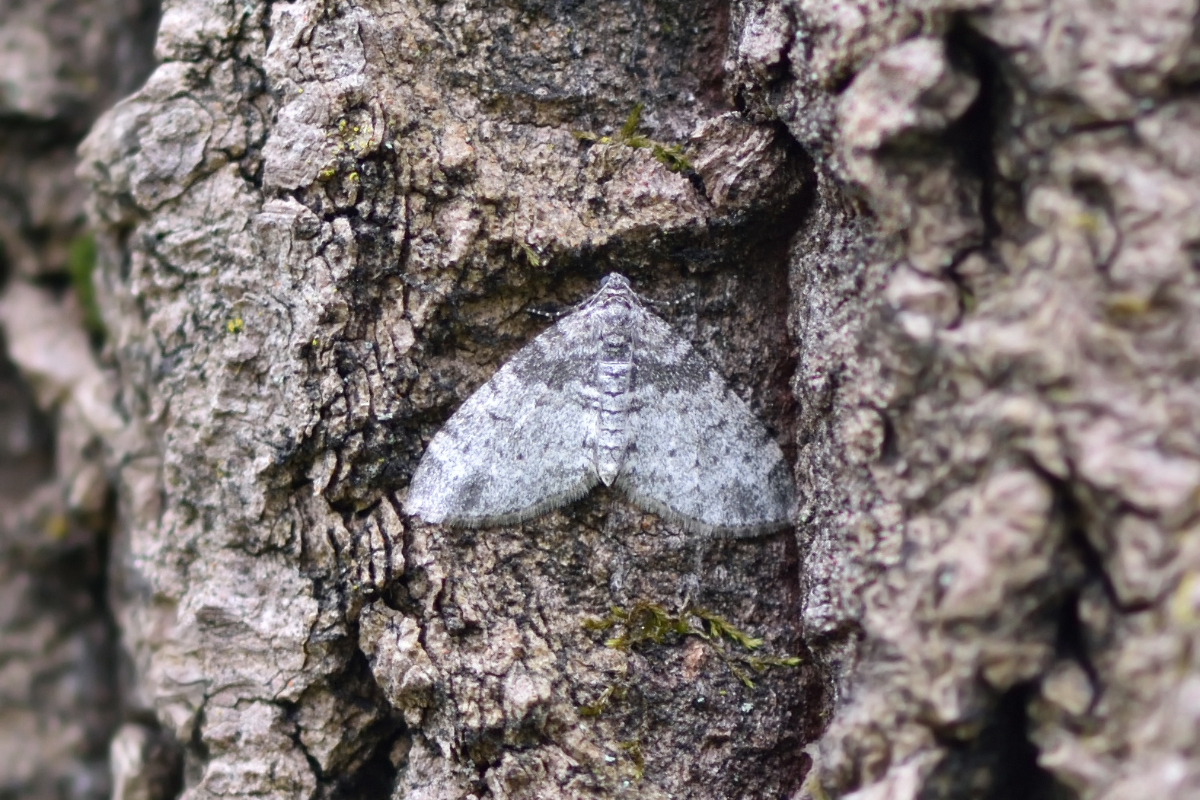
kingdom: Animalia
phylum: Arthropoda
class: Insecta
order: Lepidoptera
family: Geometridae
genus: Lobophora
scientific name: Lobophora halterata
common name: Seraphim
